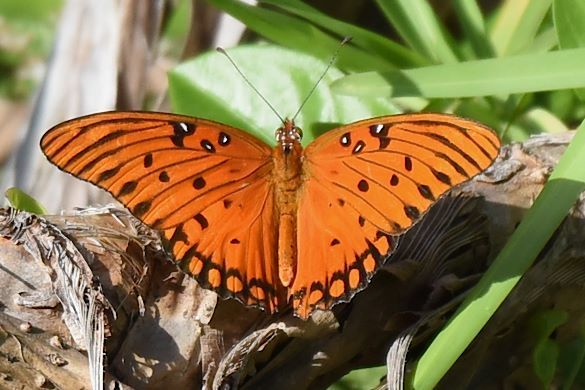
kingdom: Animalia
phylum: Arthropoda
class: Insecta
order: Lepidoptera
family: Nymphalidae
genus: Dione
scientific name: Dione vanillae
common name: Gulf fritillary
